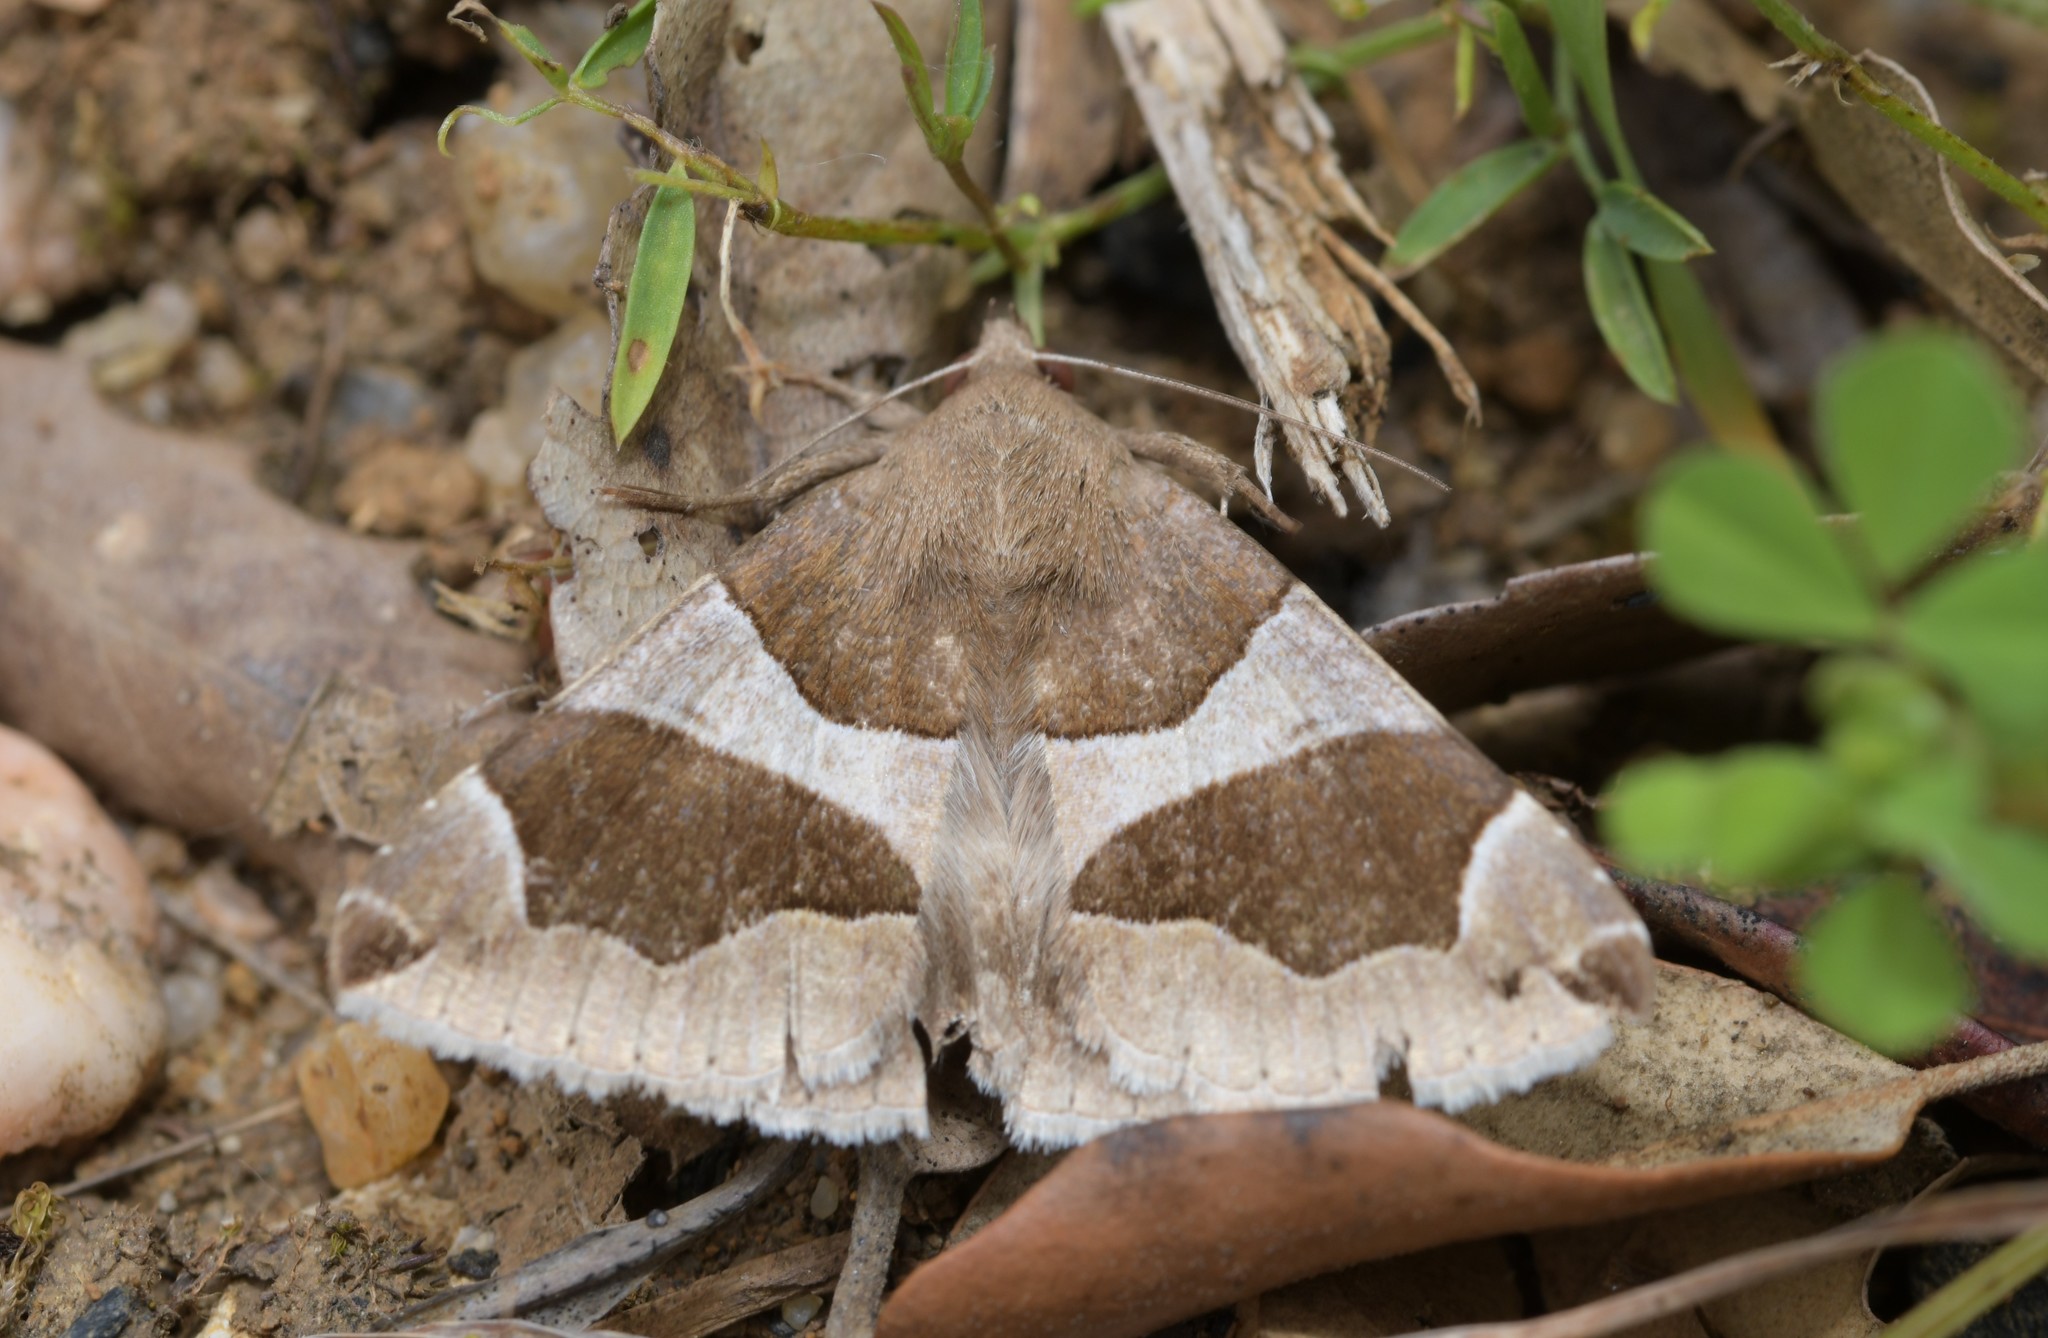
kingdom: Animalia
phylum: Arthropoda
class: Insecta
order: Lepidoptera
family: Erebidae
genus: Dysgonia
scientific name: Dysgonia algira
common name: Passenger
